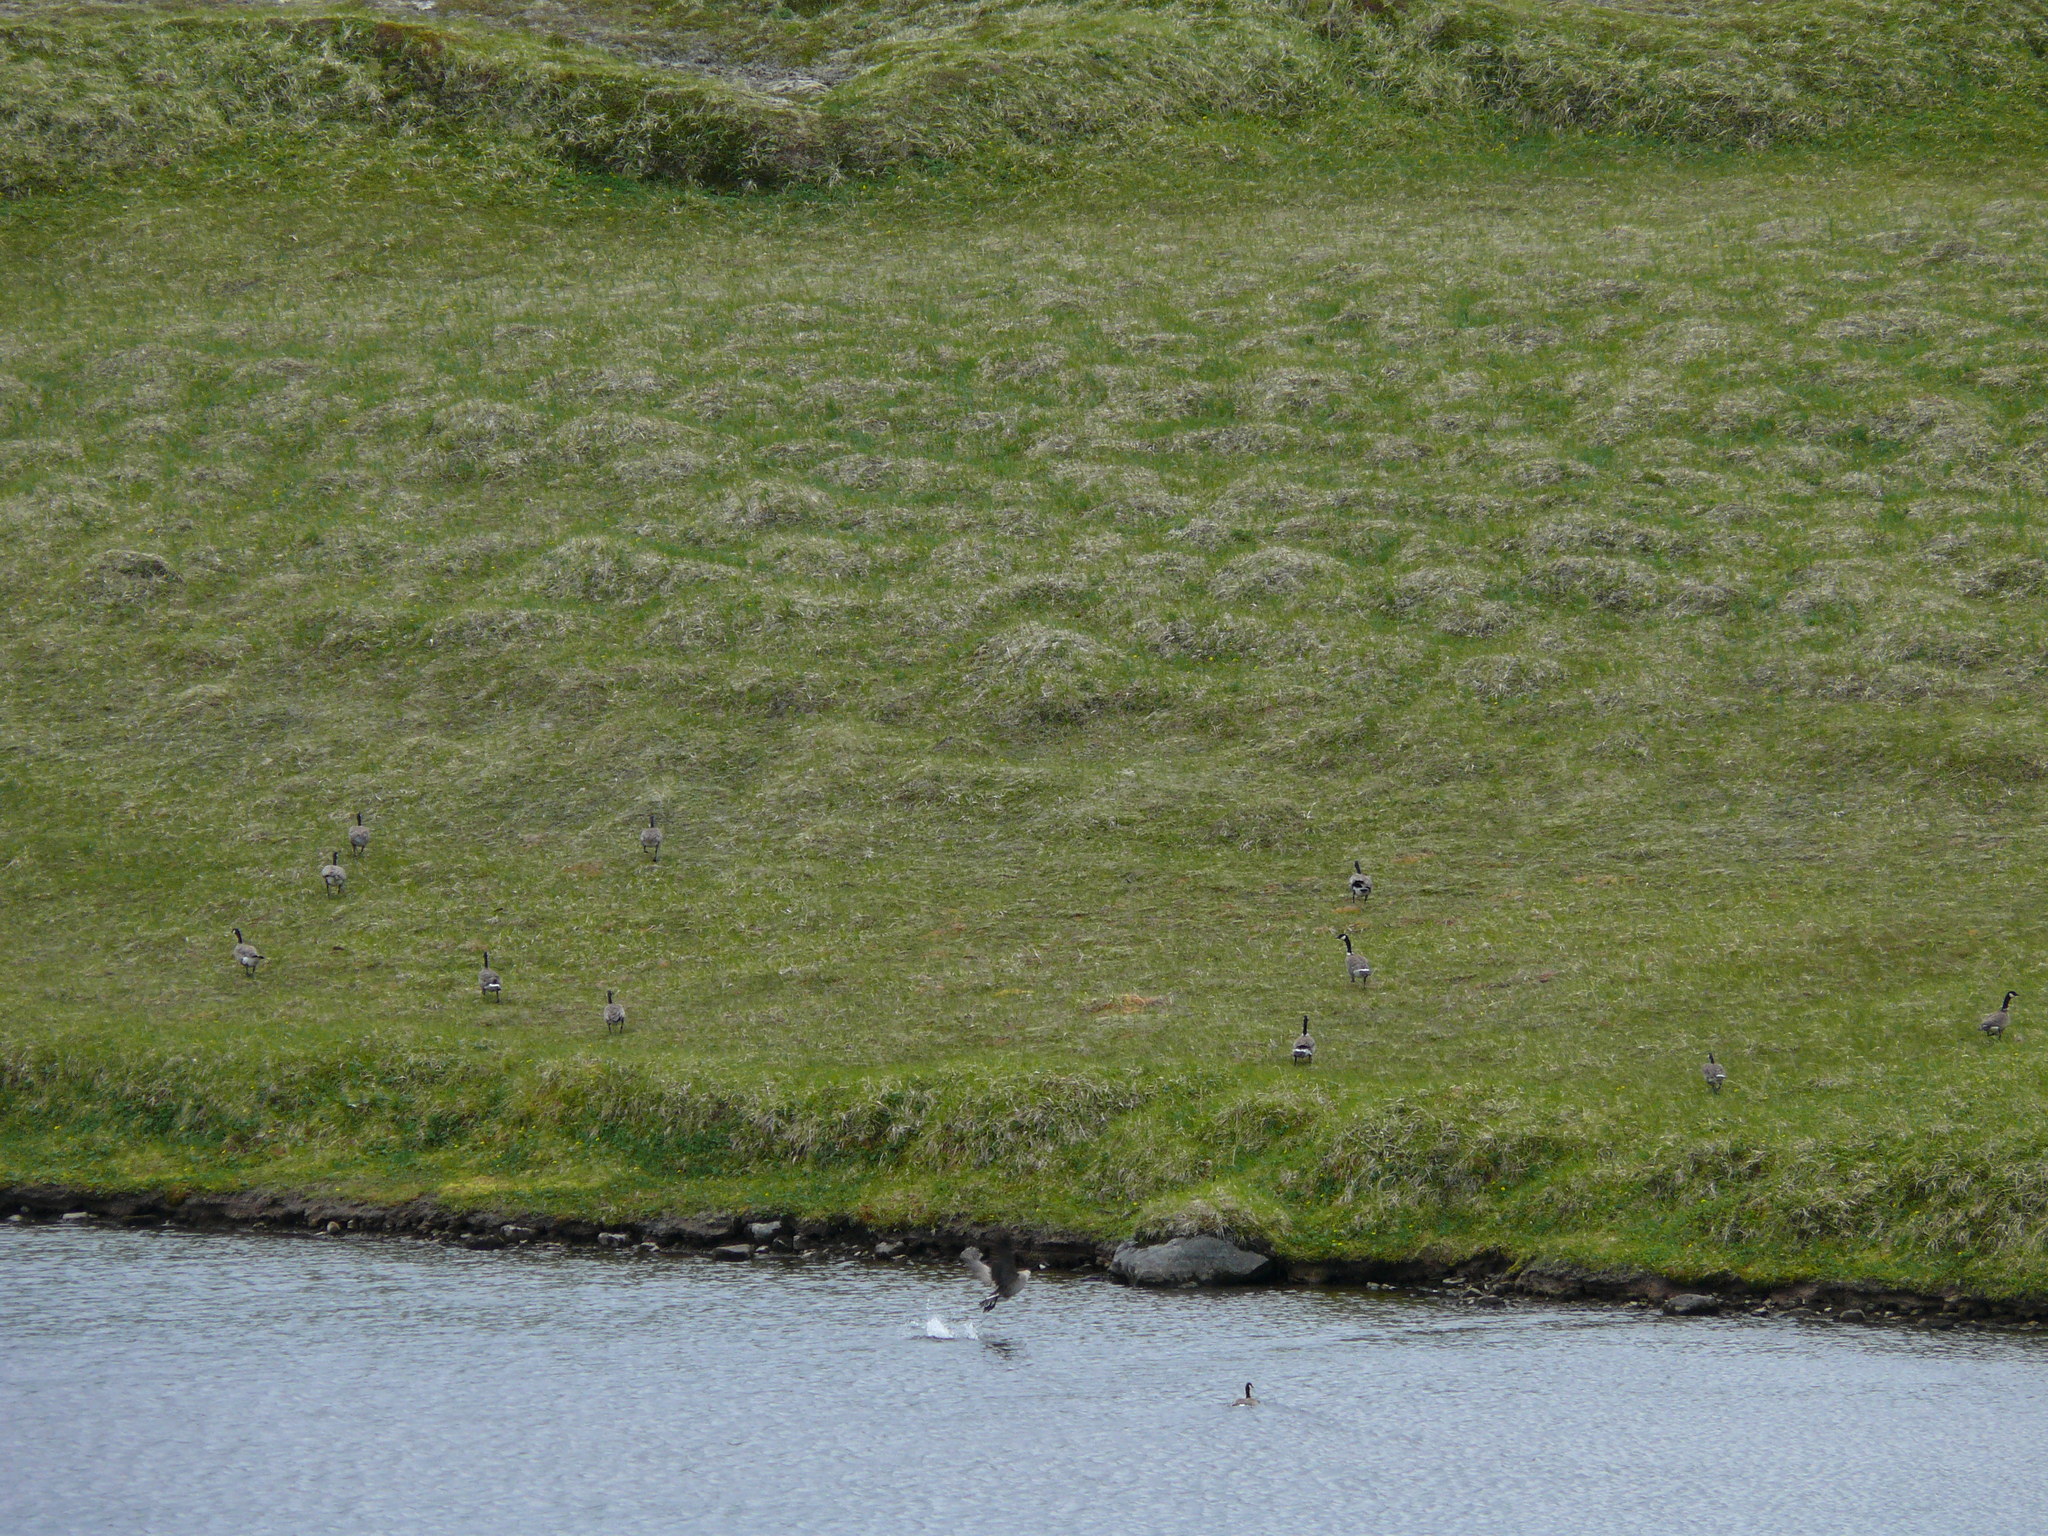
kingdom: Animalia
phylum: Chordata
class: Aves
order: Anseriformes
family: Anatidae
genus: Branta
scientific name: Branta hutchinsii
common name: Cackling goose
